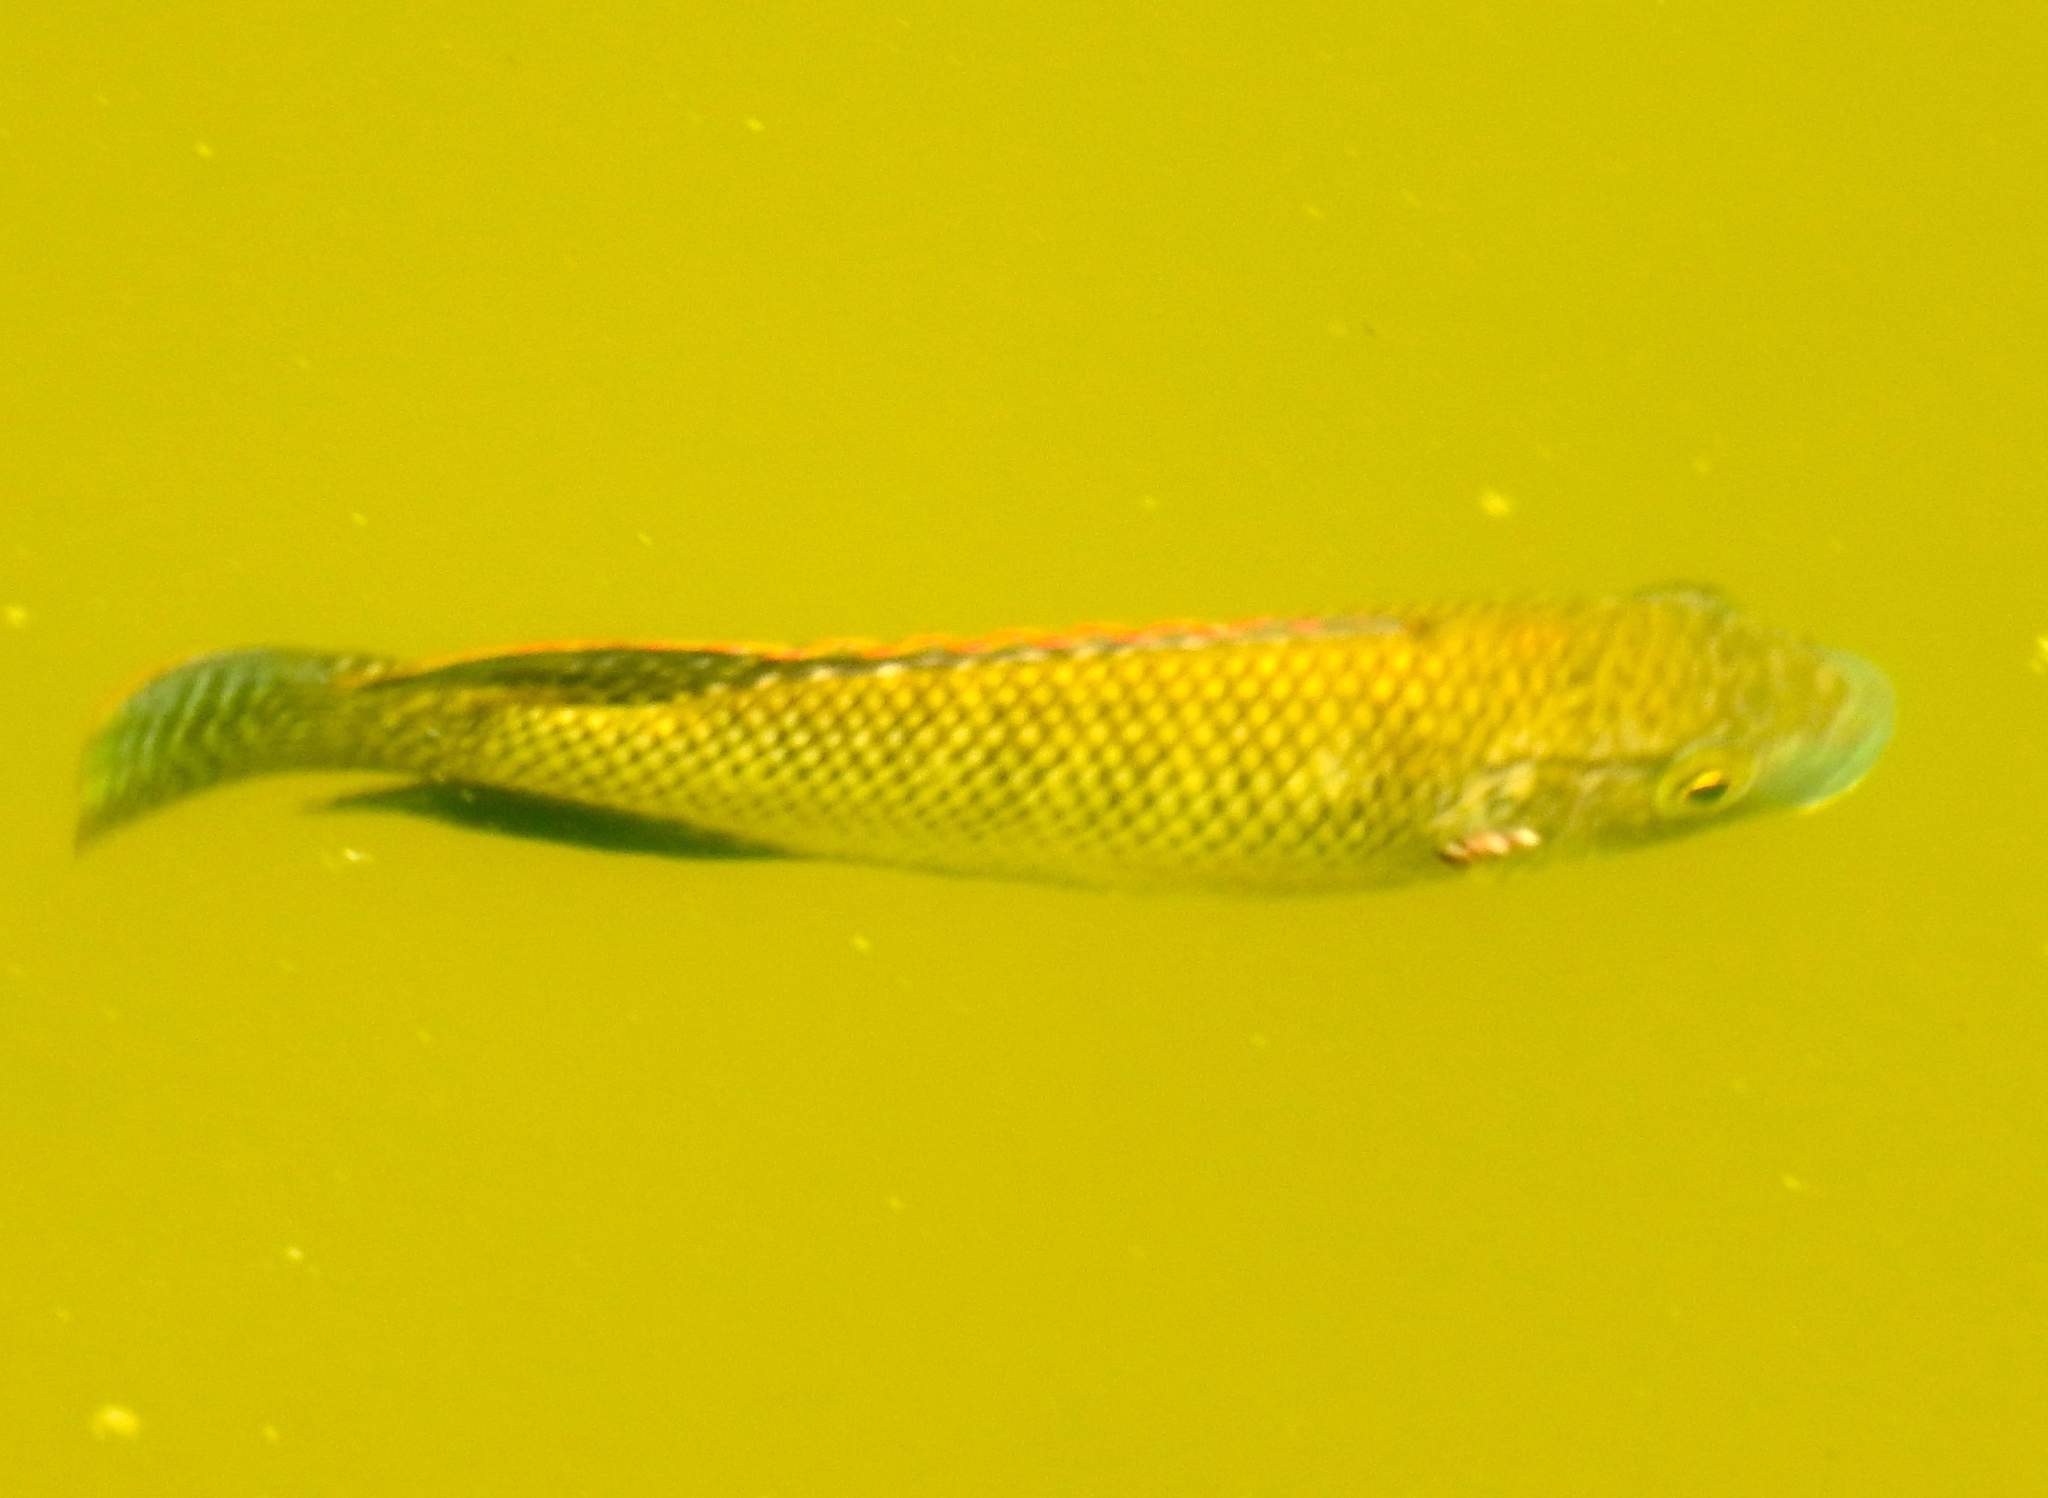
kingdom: Animalia
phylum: Chordata
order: Perciformes
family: Cichlidae
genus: Oreochromis
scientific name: Oreochromis aureus
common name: Blue tilapia
